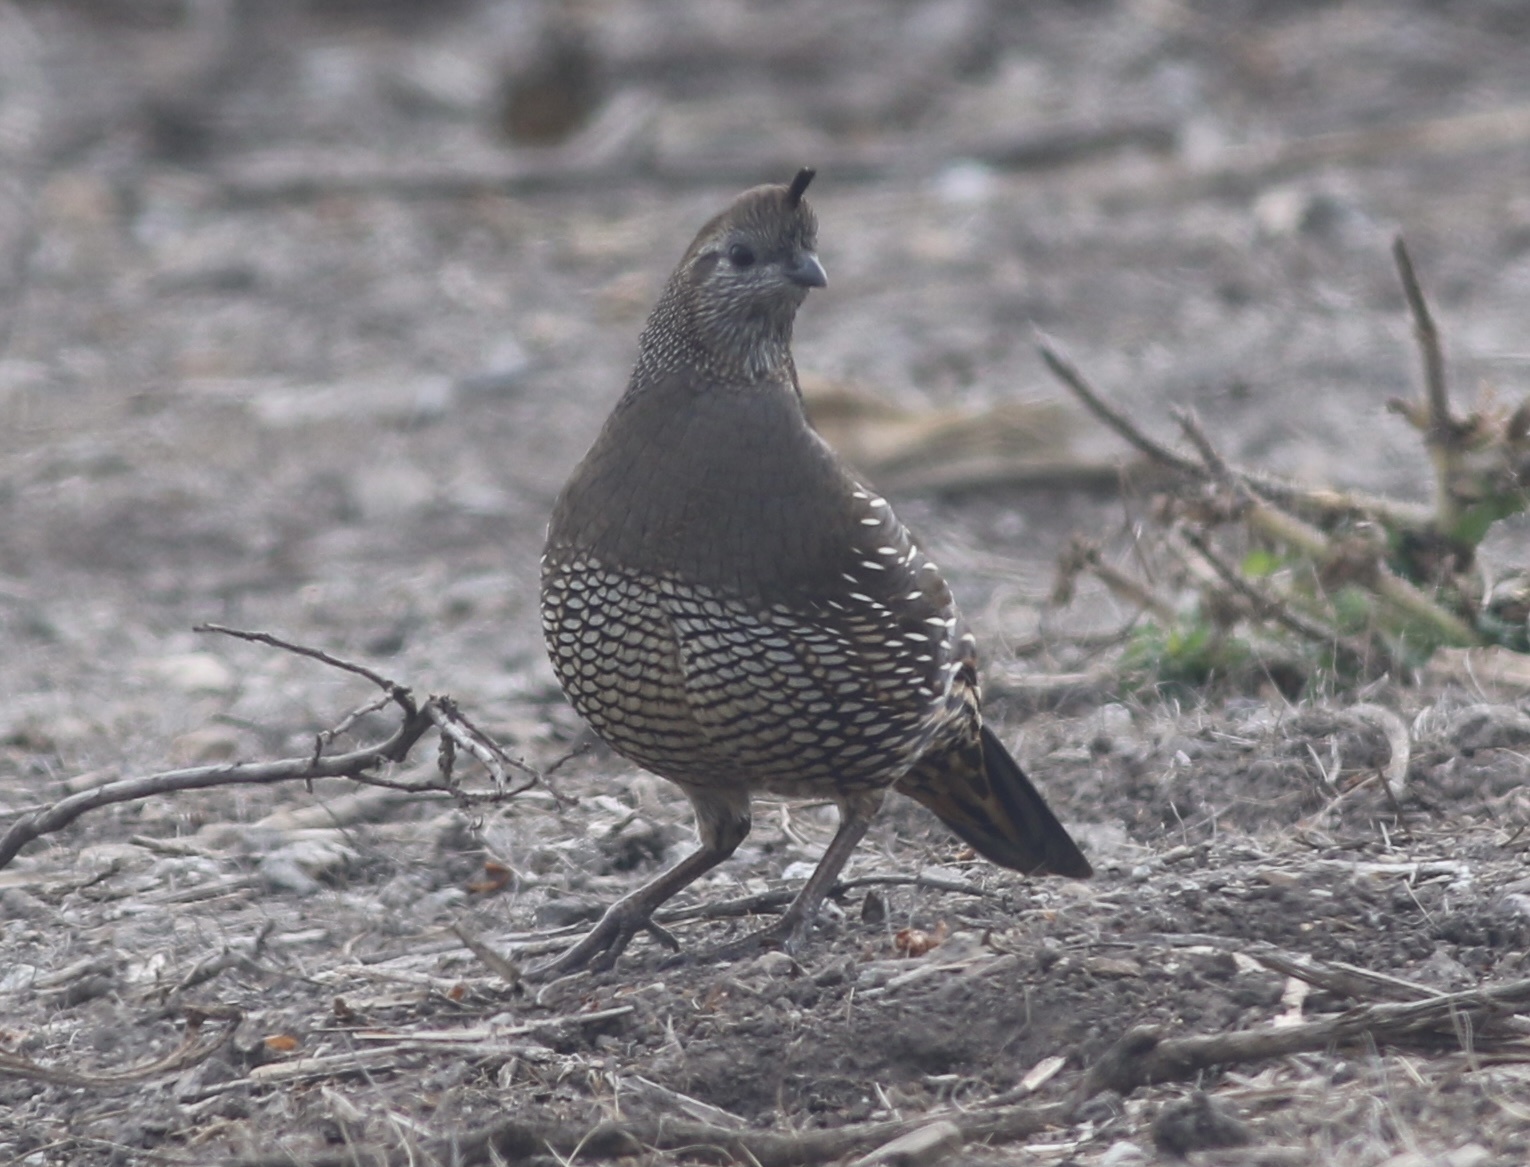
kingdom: Animalia
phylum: Chordata
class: Aves
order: Galliformes
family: Odontophoridae
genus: Callipepla
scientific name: Callipepla californica
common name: California quail
